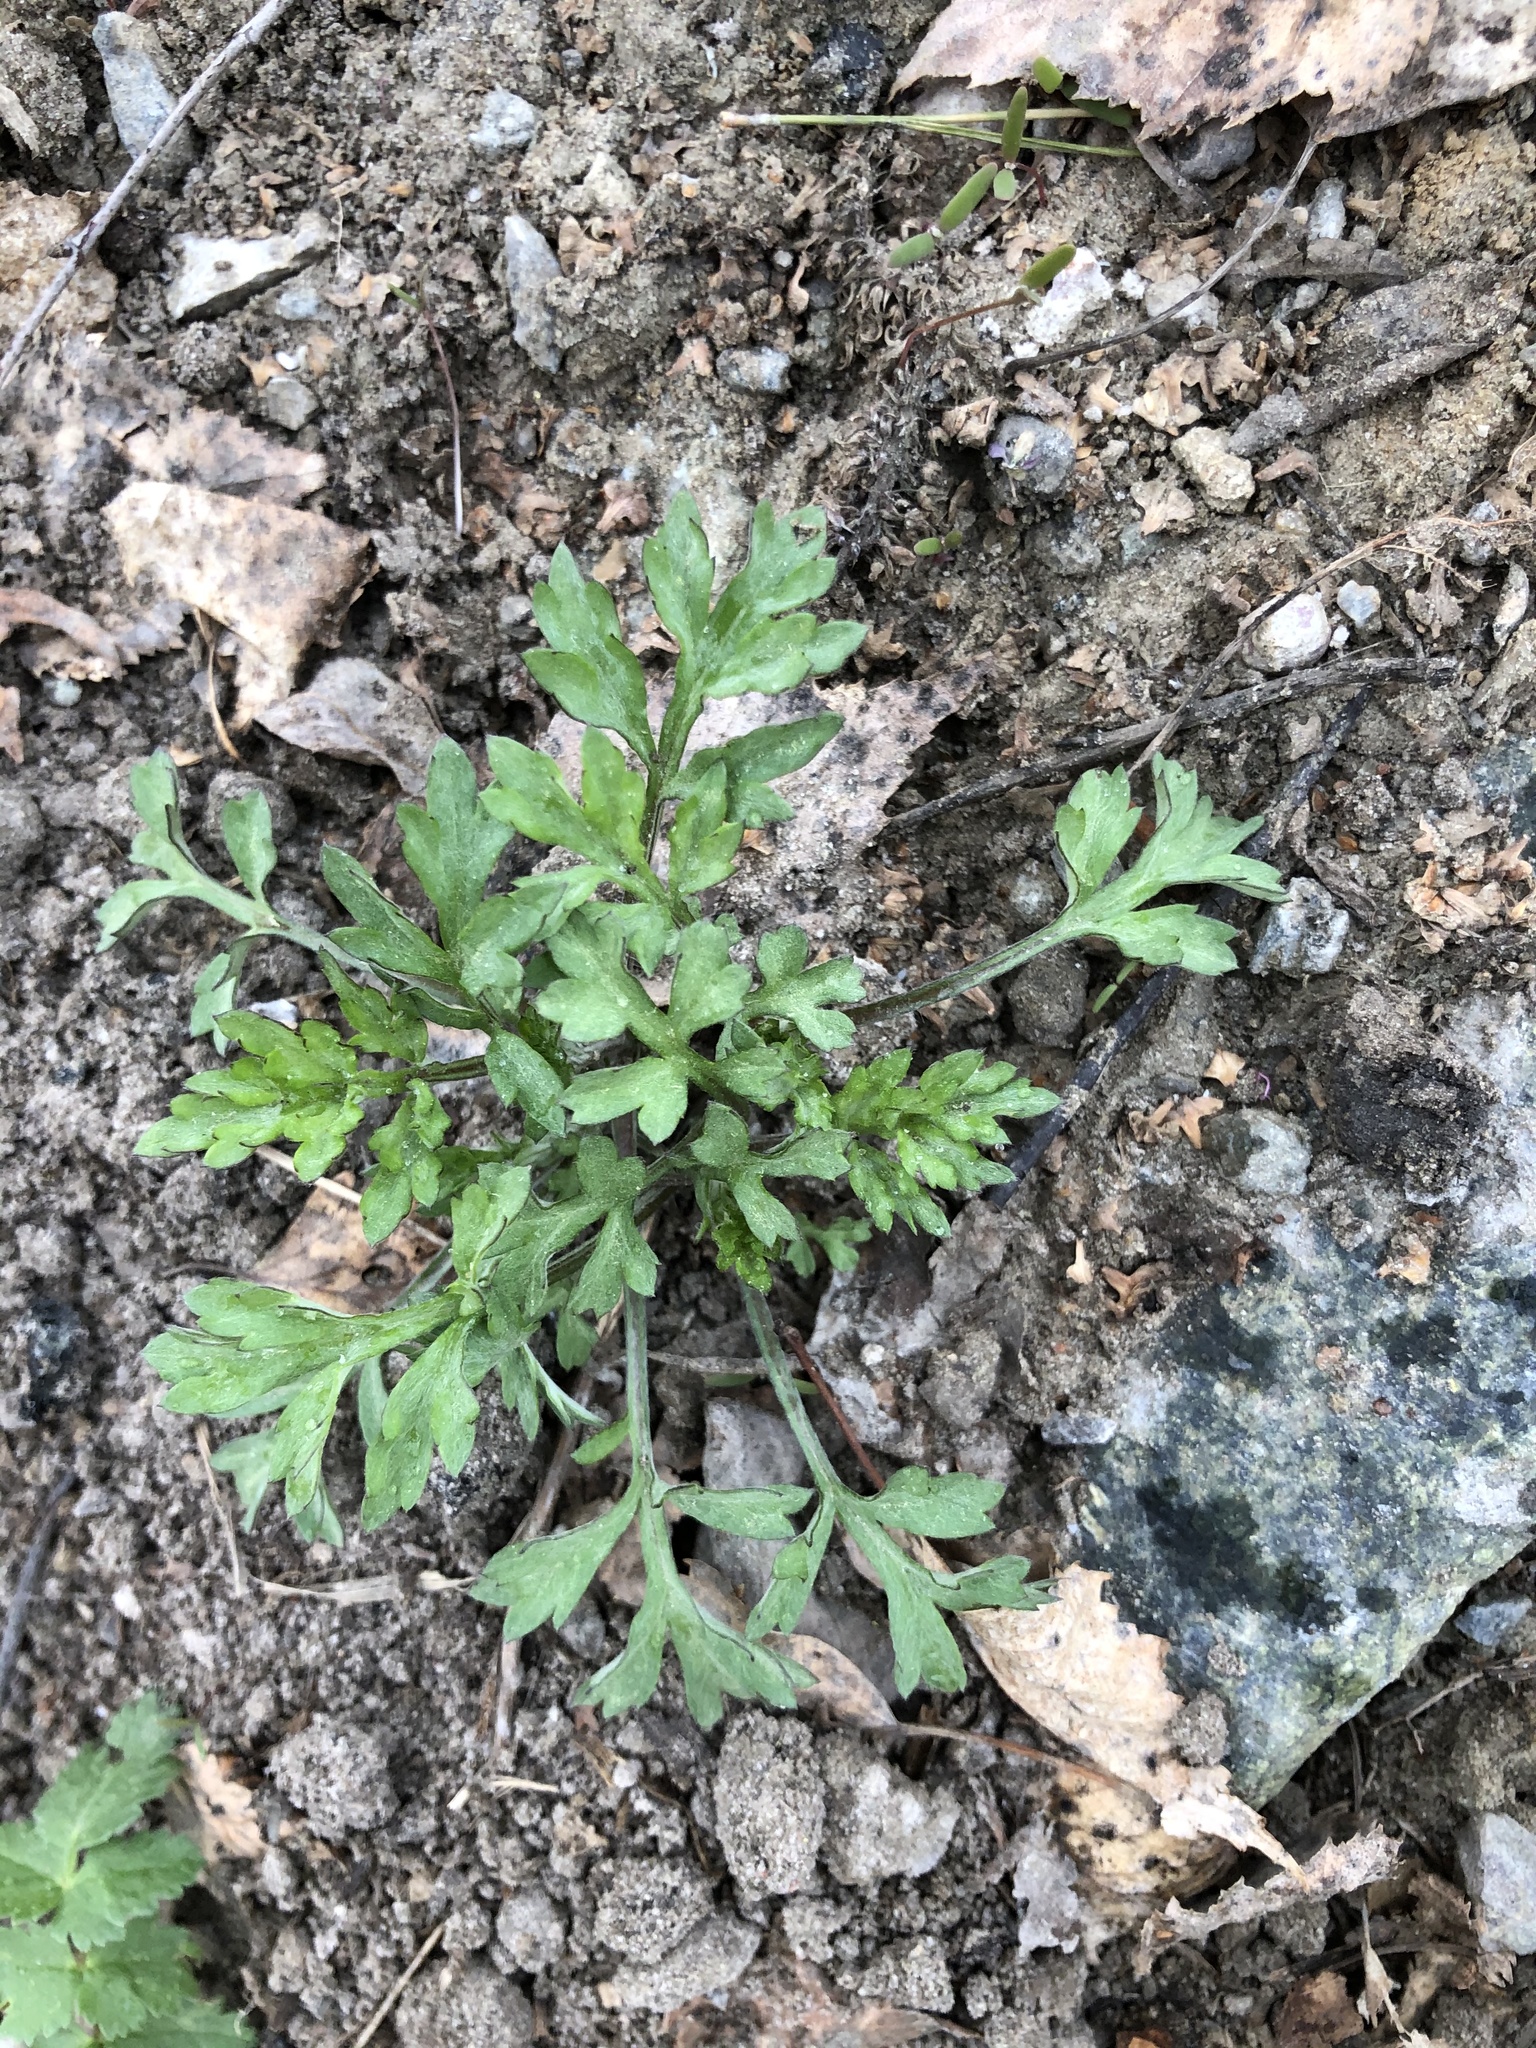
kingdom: Plantae
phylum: Tracheophyta
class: Magnoliopsida
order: Asterales
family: Asteraceae
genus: Artemisia
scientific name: Artemisia vulgaris
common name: Mugwort
